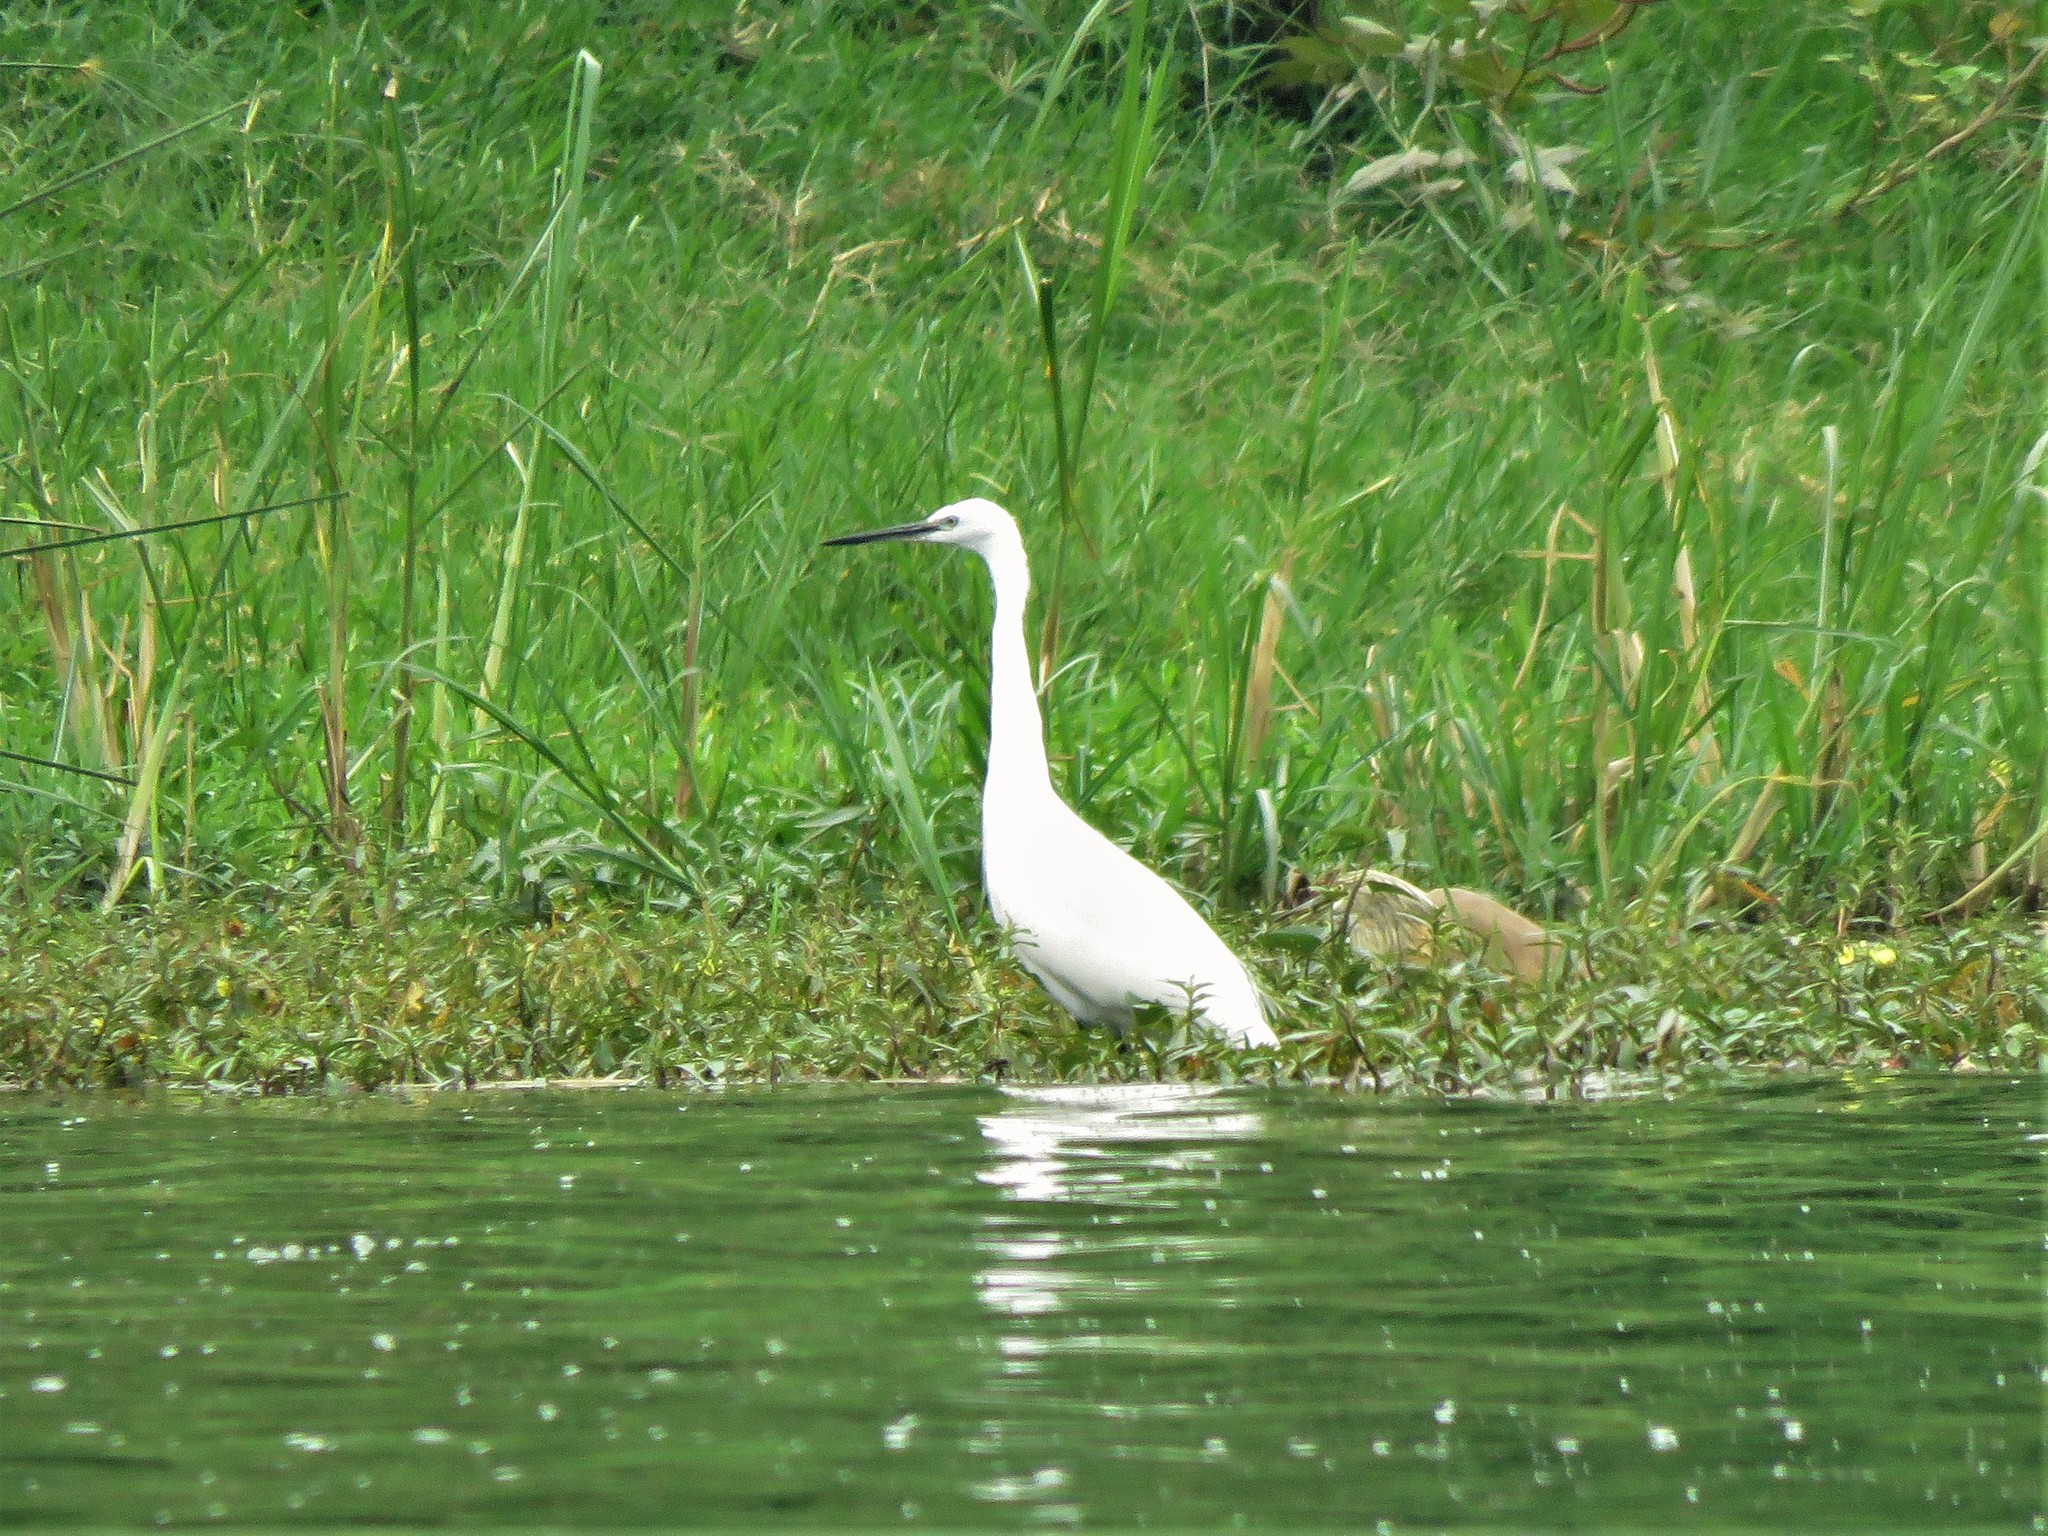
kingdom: Animalia
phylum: Chordata
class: Aves
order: Pelecaniformes
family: Ardeidae
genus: Egretta
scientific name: Egretta garzetta
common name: Little egret
